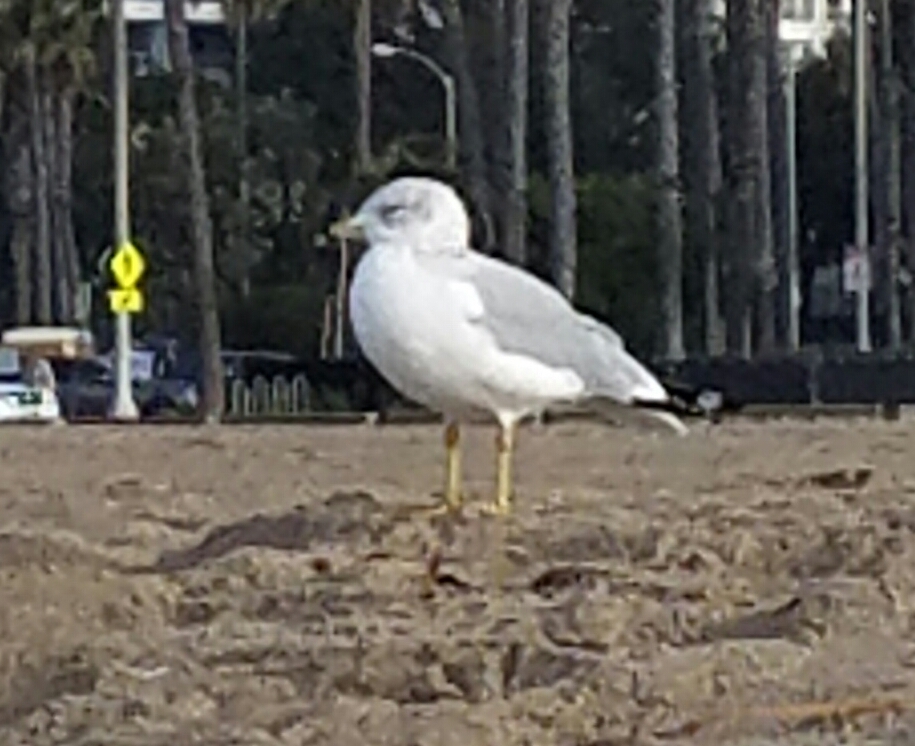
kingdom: Animalia
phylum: Chordata
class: Aves
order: Charadriiformes
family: Laridae
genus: Larus
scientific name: Larus delawarensis
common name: Ring-billed gull
